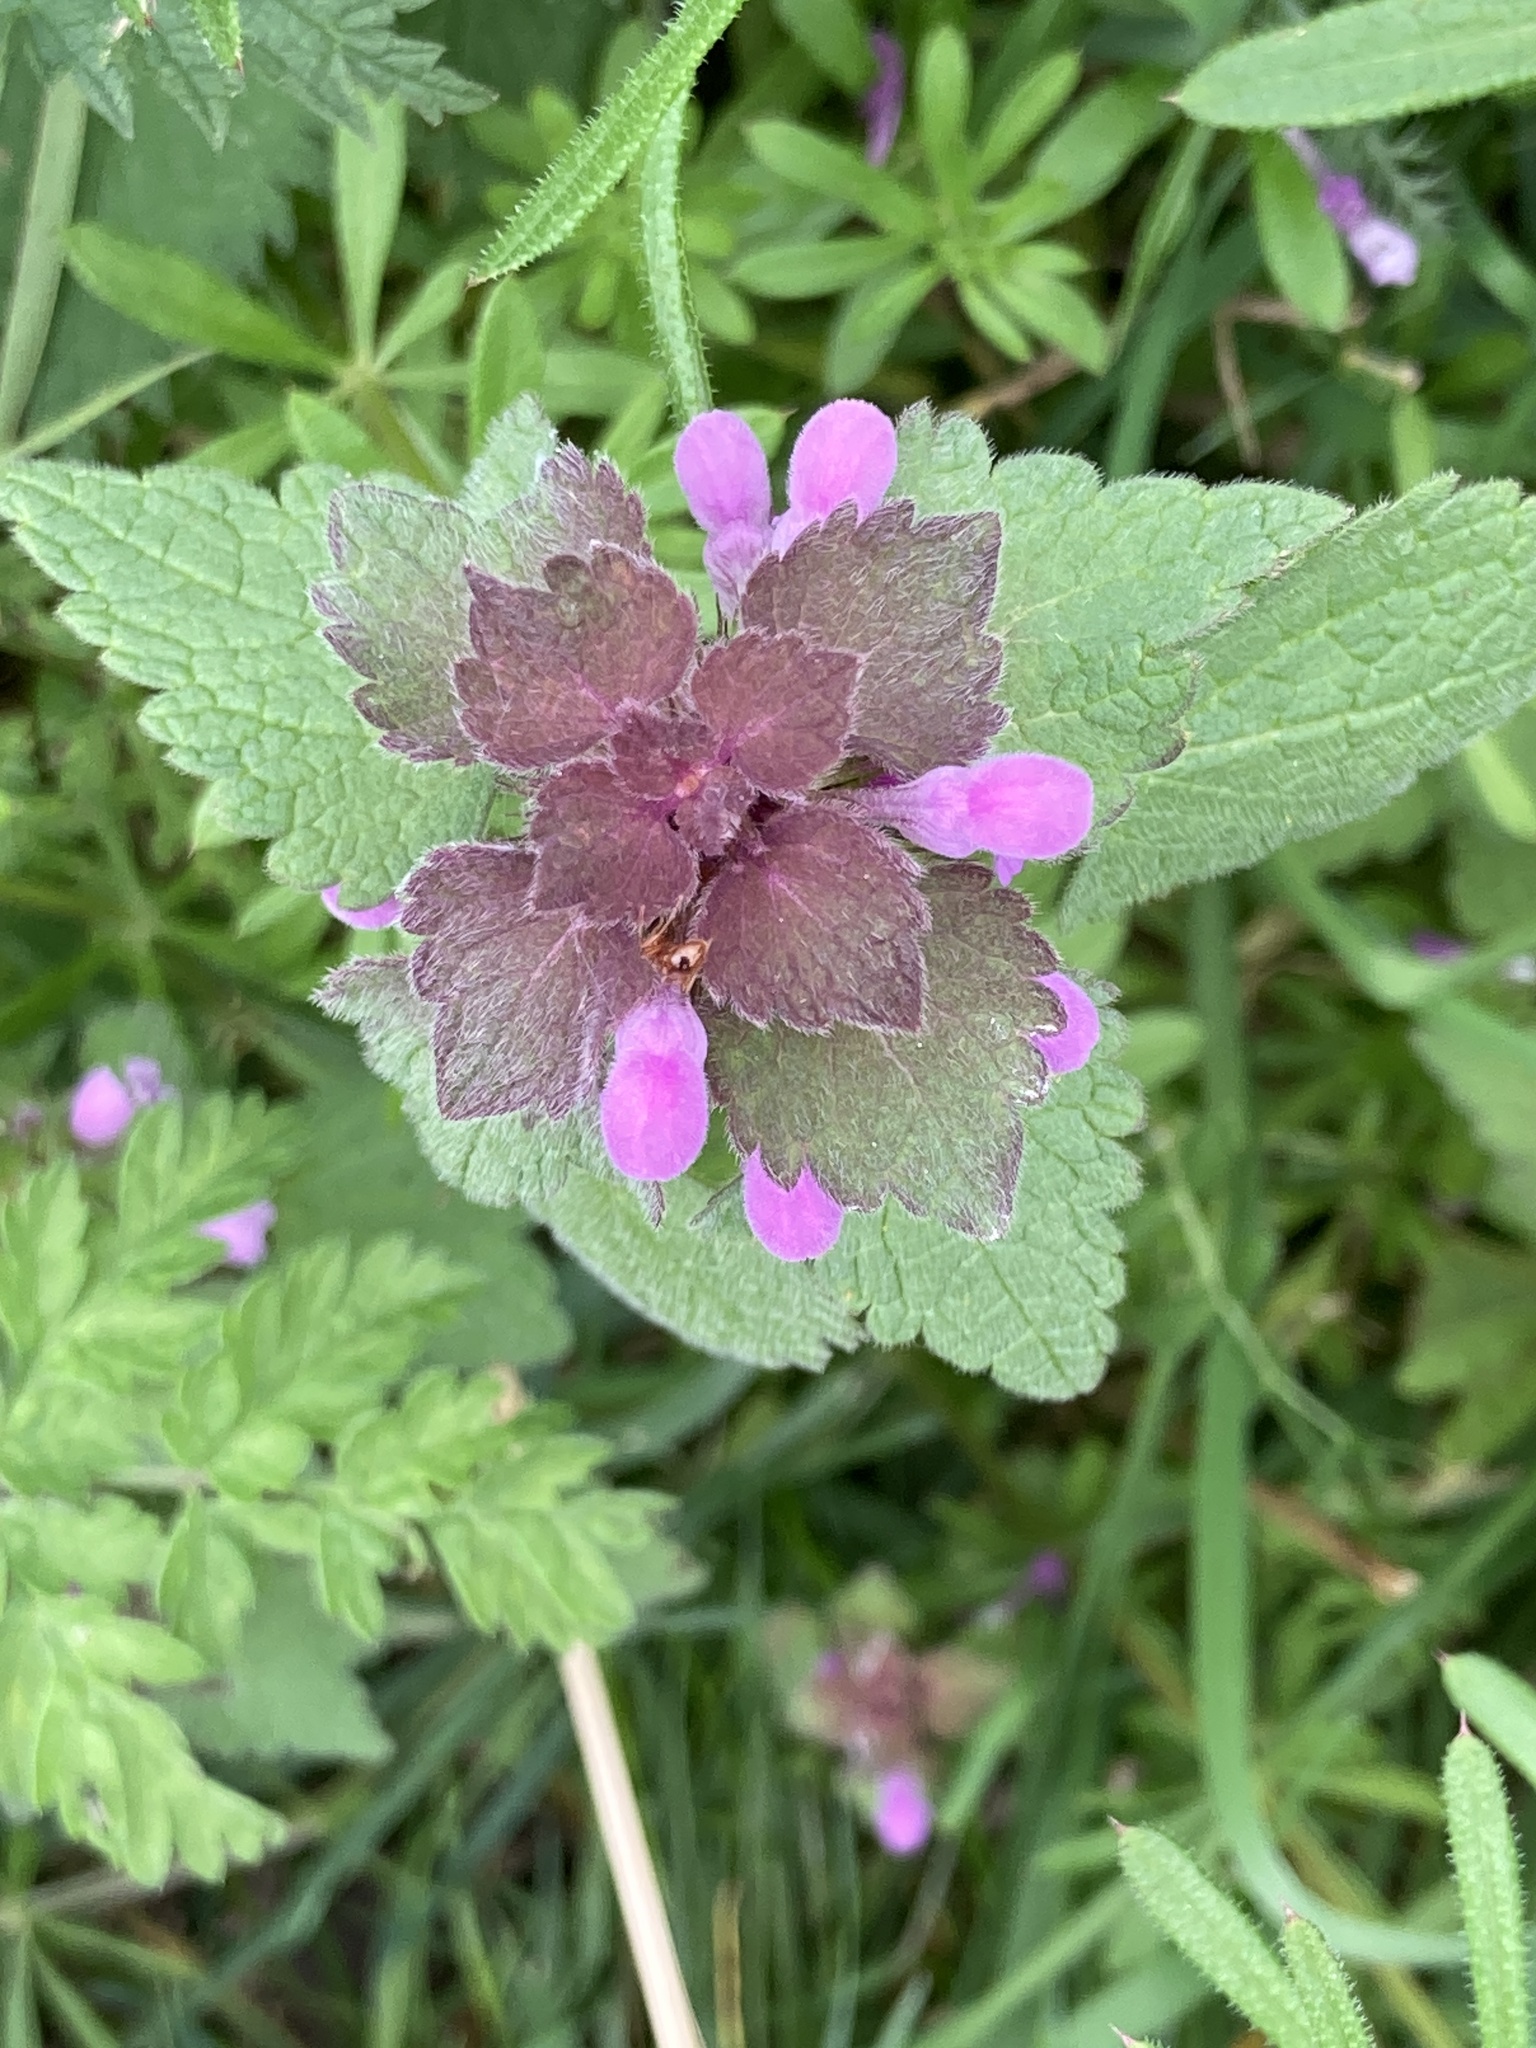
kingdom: Plantae
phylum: Tracheophyta
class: Magnoliopsida
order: Lamiales
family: Lamiaceae
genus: Lamium
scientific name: Lamium purpureum
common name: Red dead-nettle
